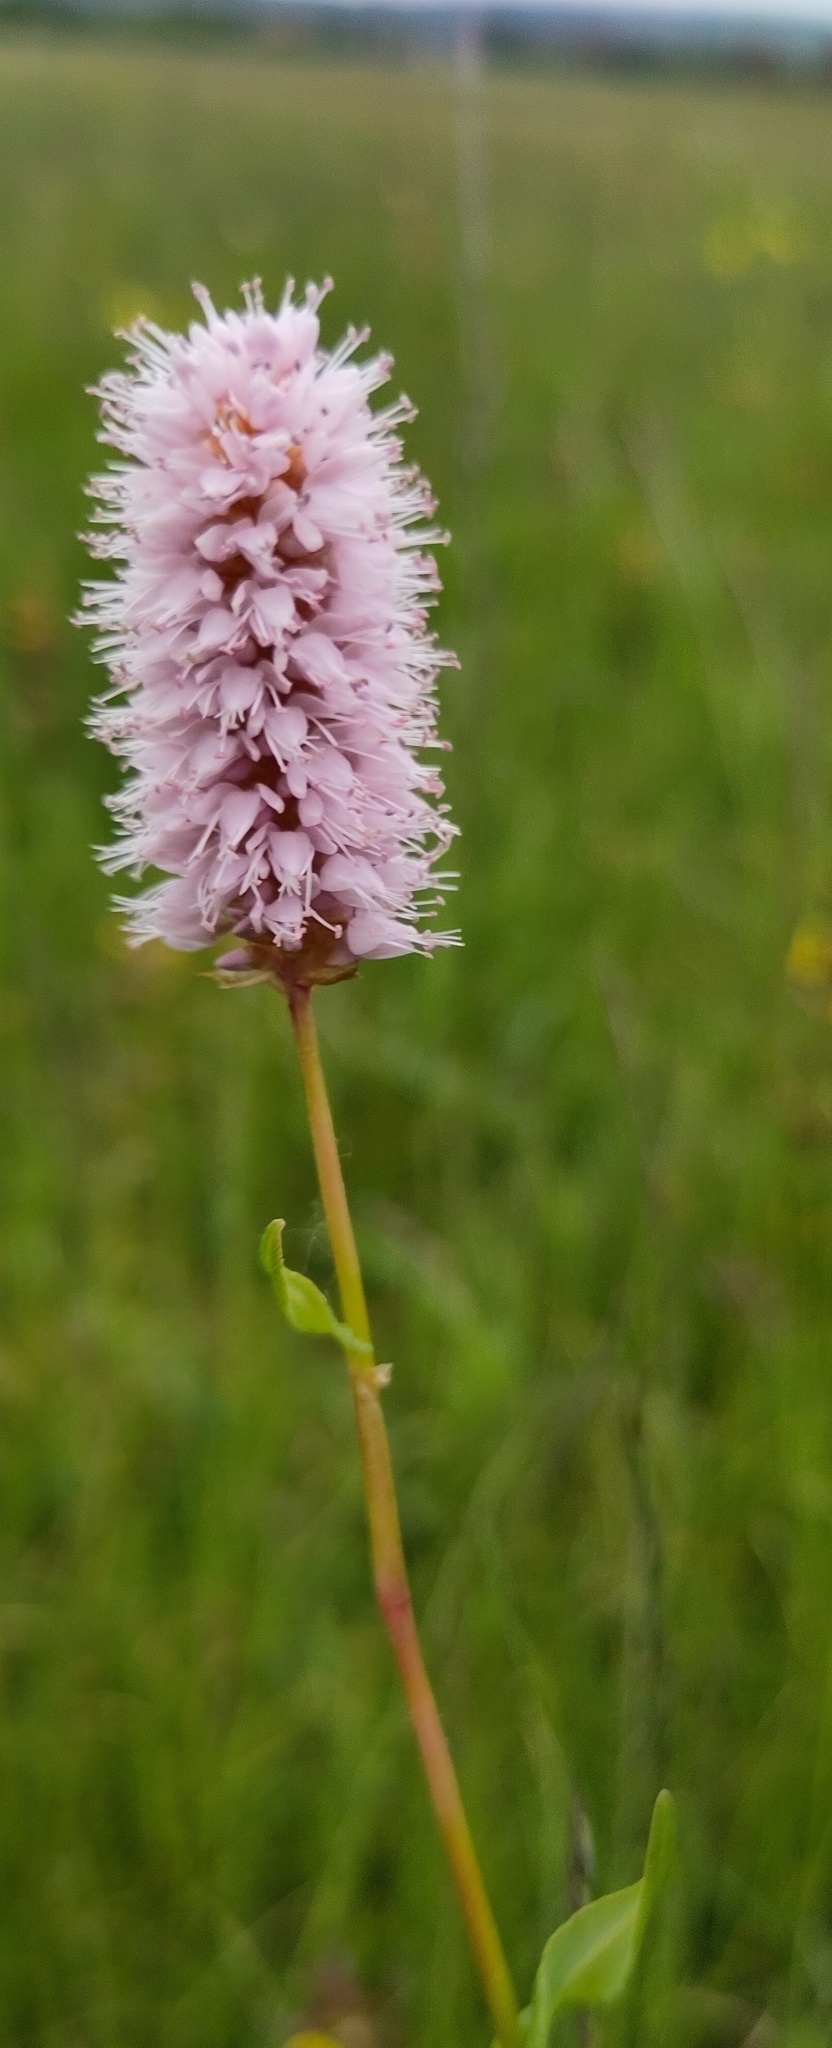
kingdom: Plantae
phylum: Tracheophyta
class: Magnoliopsida
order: Caryophyllales
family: Polygonaceae
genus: Bistorta
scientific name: Bistorta officinalis
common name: Common bistort
